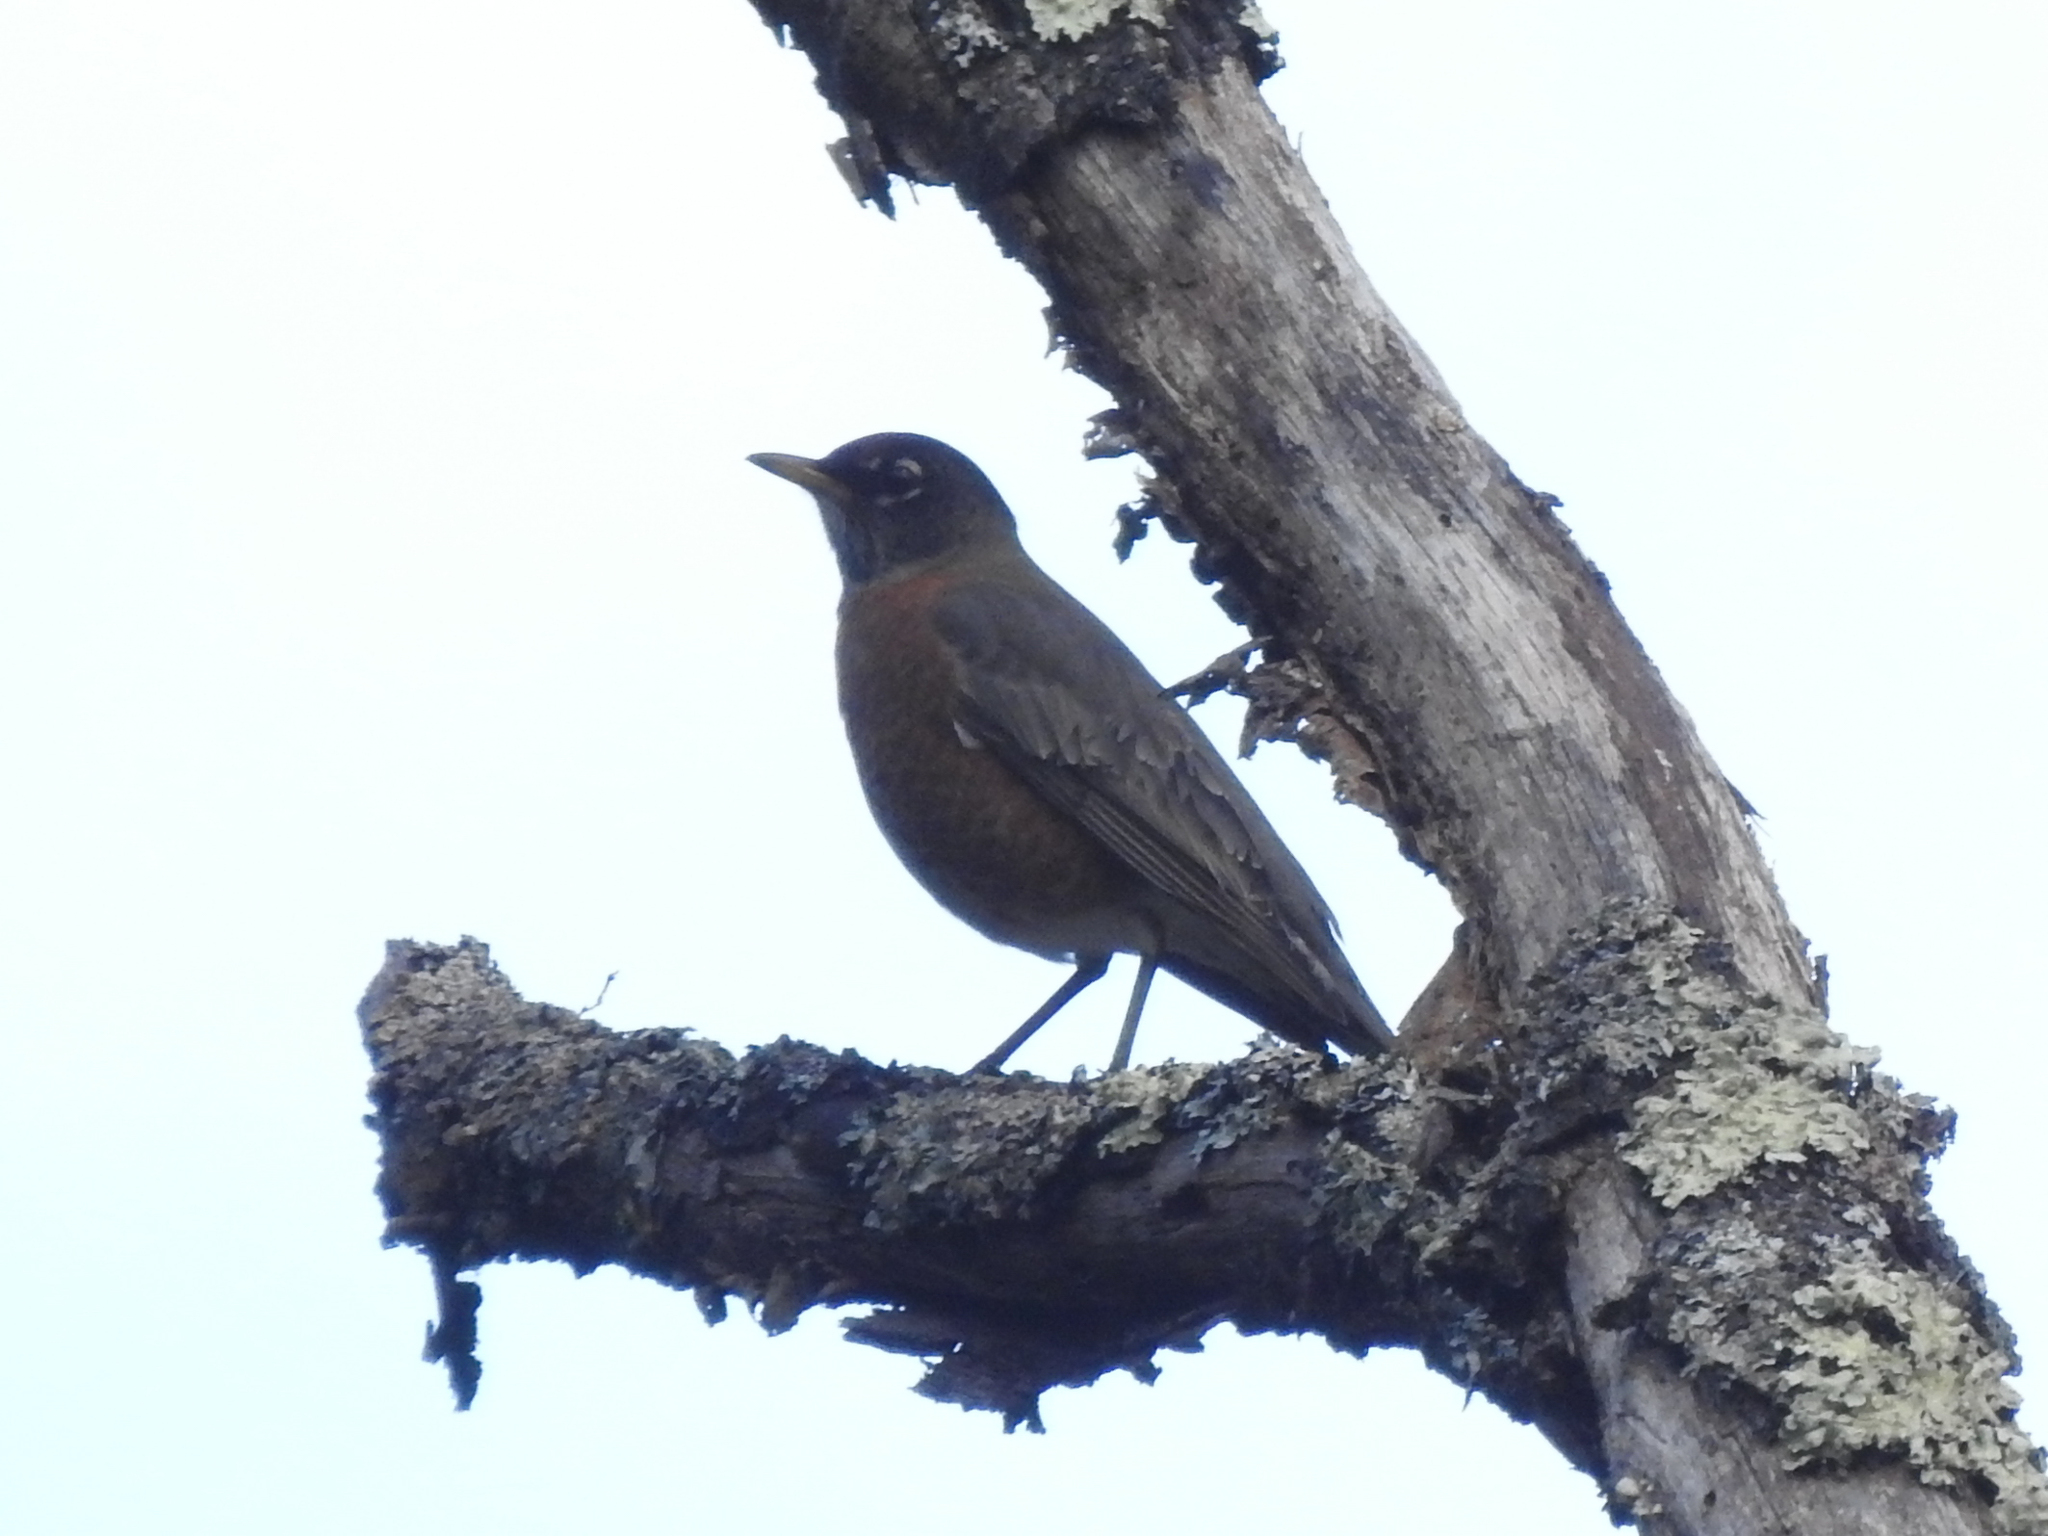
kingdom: Animalia
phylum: Chordata
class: Aves
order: Passeriformes
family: Turdidae
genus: Turdus
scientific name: Turdus migratorius
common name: American robin
